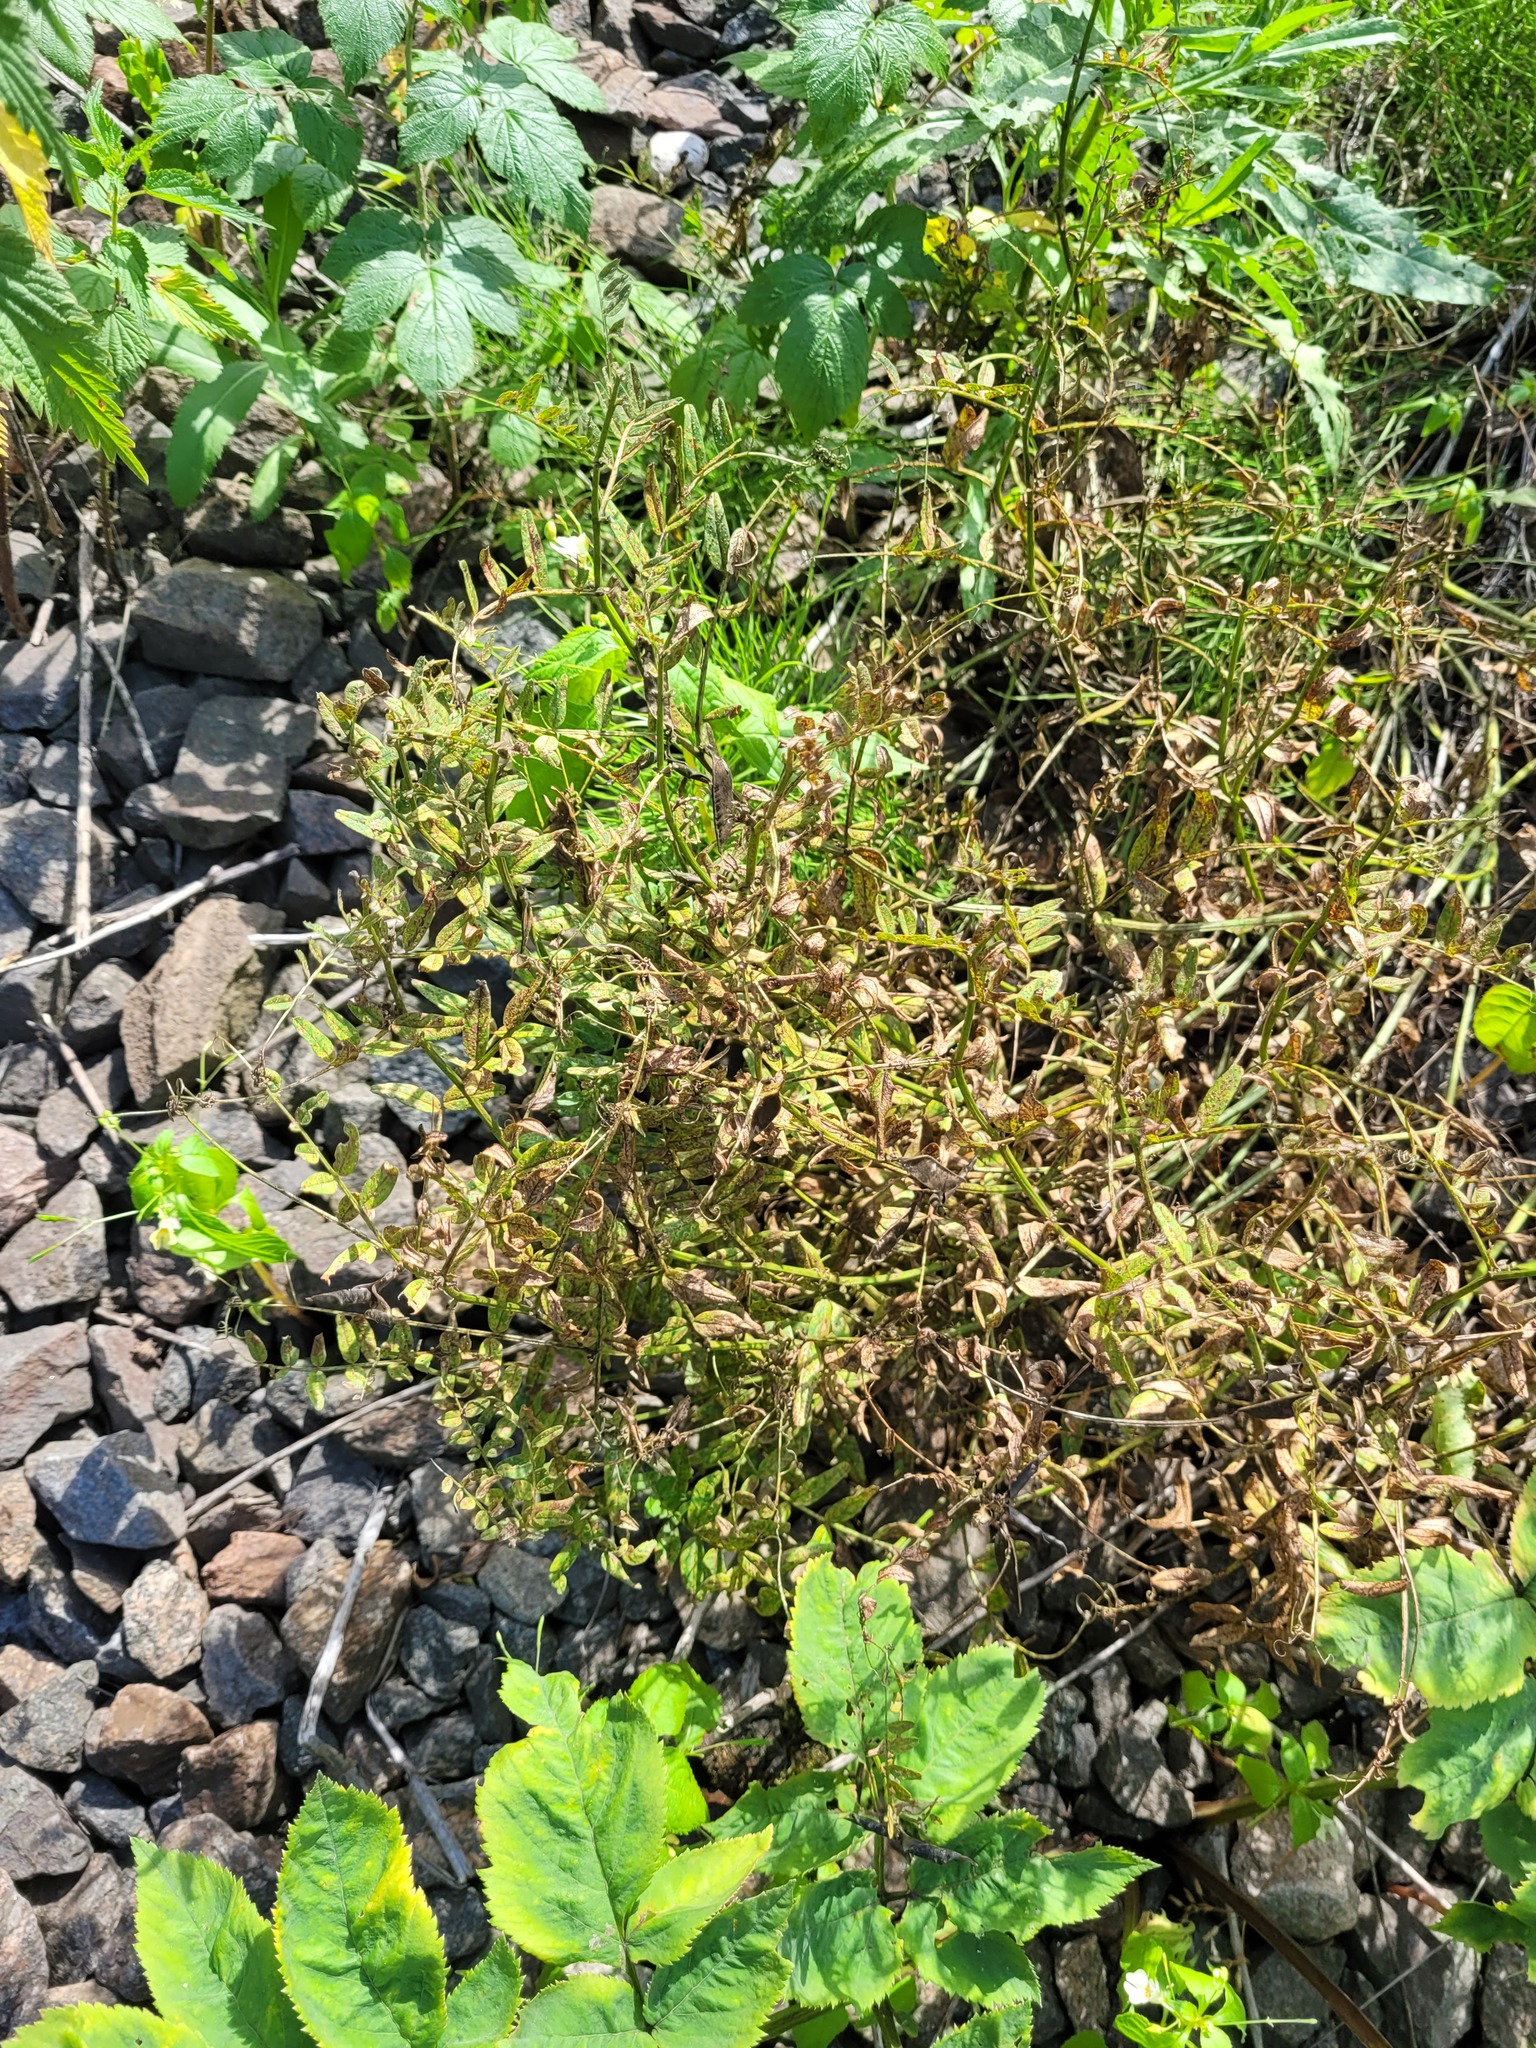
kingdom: Plantae
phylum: Tracheophyta
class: Magnoliopsida
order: Fabales
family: Fabaceae
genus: Vicia
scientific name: Vicia sepium
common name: Bush vetch
